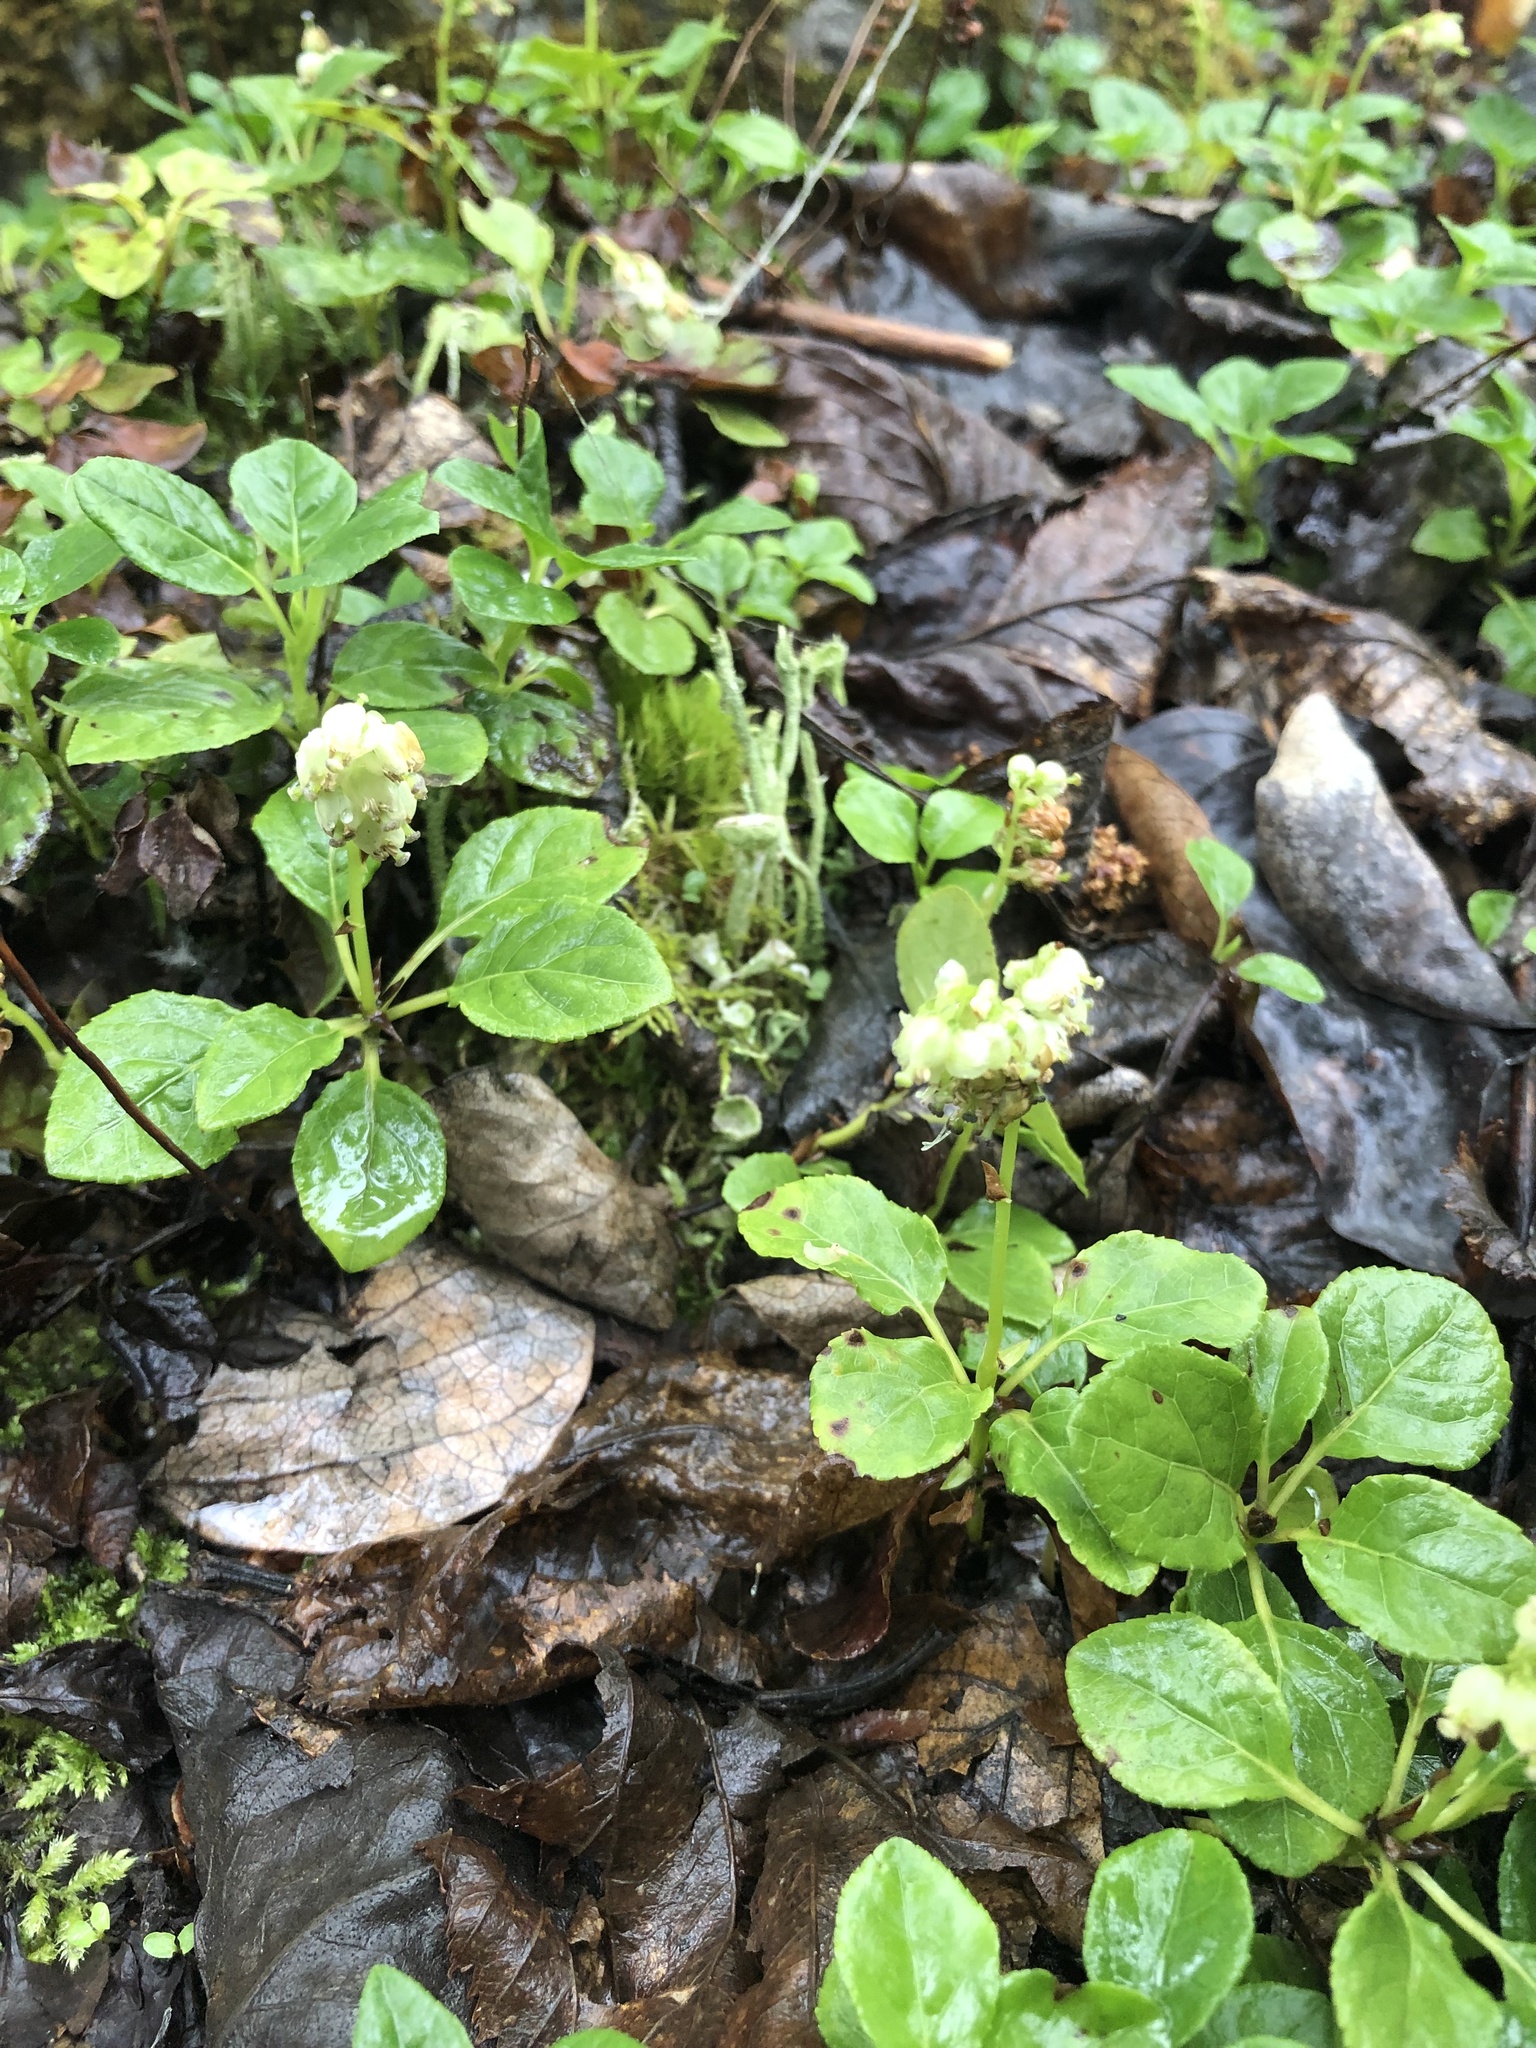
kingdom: Plantae
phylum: Tracheophyta
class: Magnoliopsida
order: Ericales
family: Ericaceae
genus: Orthilia
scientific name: Orthilia secunda
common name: One-sided orthilia
